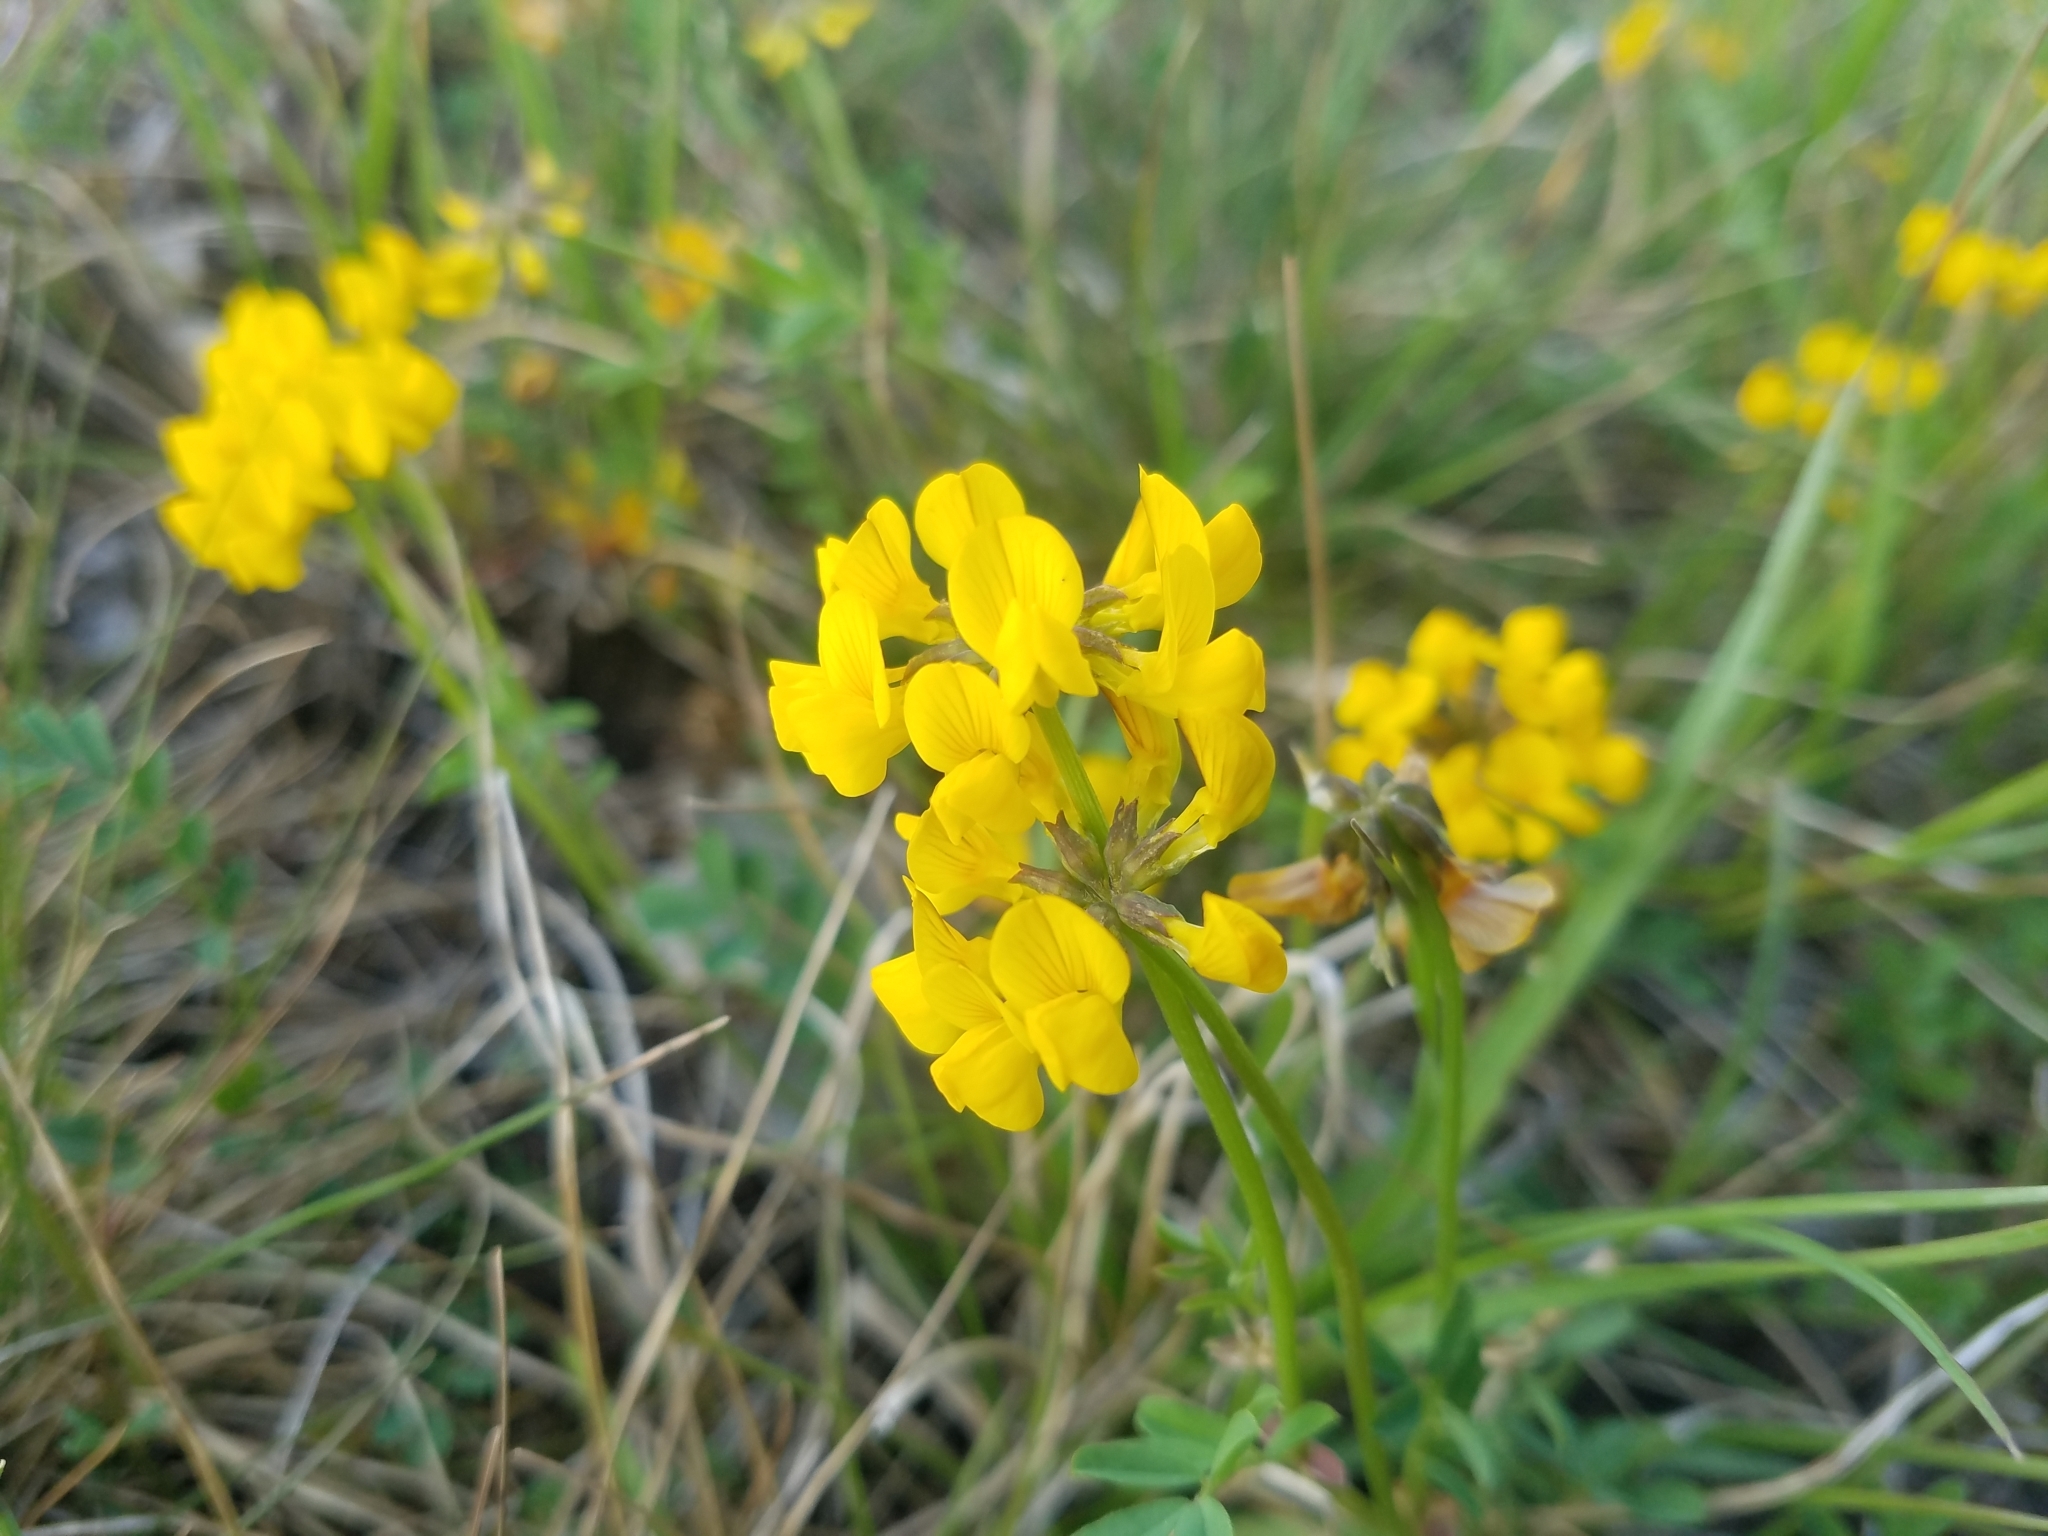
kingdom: Plantae
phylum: Tracheophyta
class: Magnoliopsida
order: Fabales
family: Fabaceae
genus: Hippocrepis
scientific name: Hippocrepis comosa
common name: Horseshoe vetch
